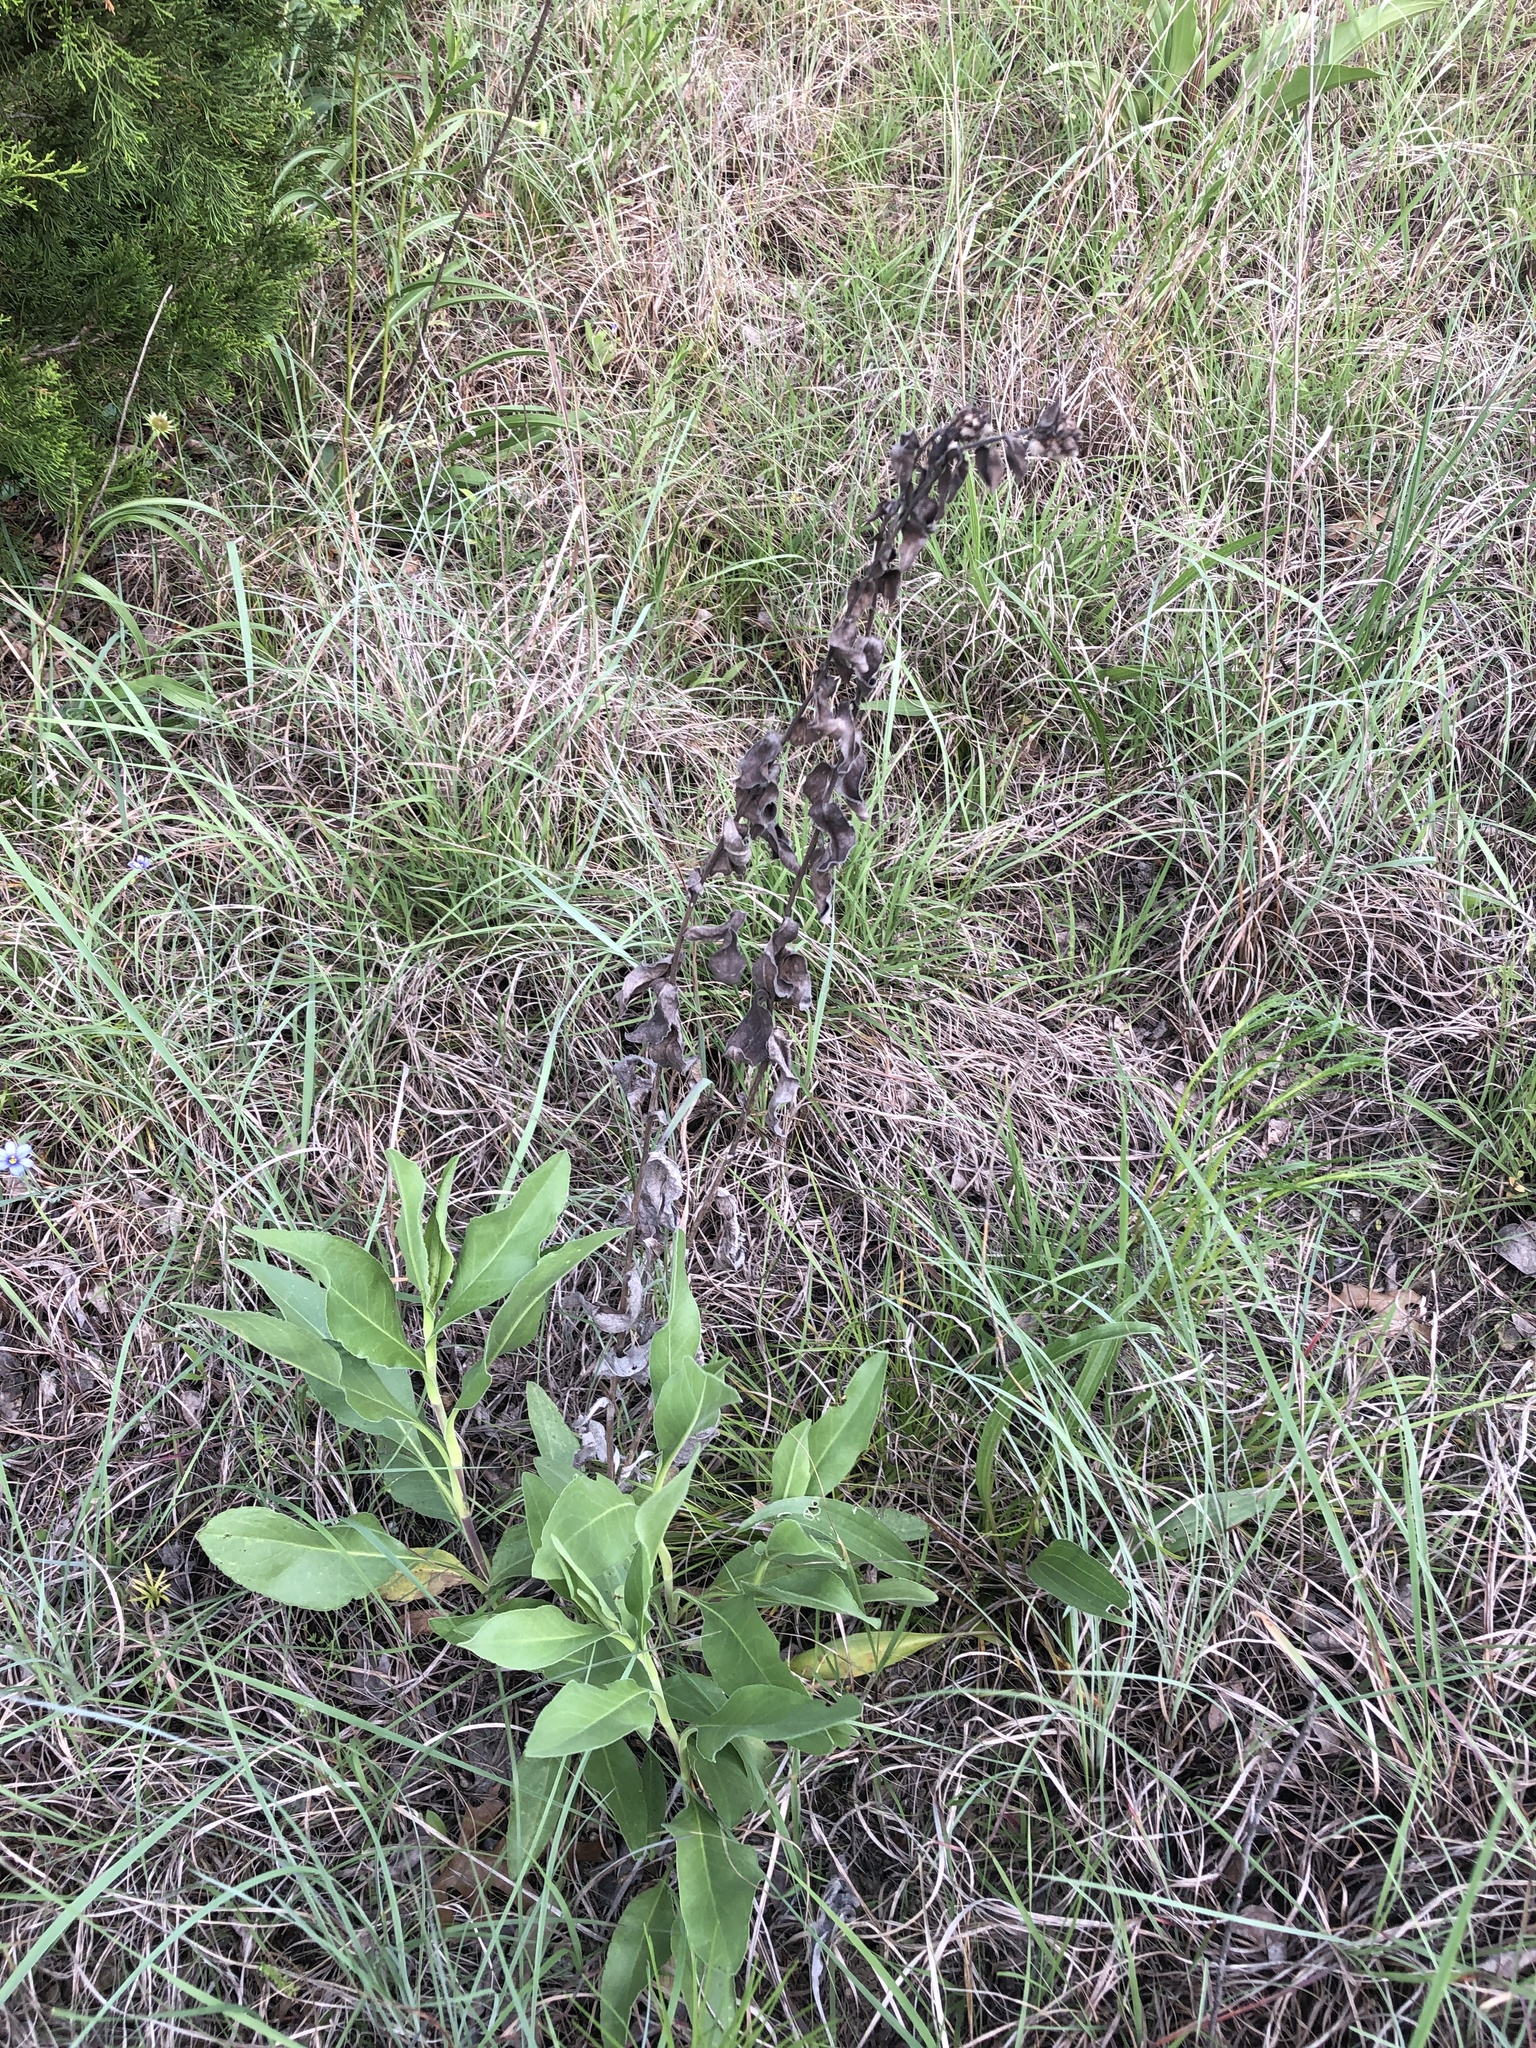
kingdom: Plantae
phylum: Tracheophyta
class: Magnoliopsida
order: Asterales
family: Asteraceae
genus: Solidago
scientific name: Solidago rigida
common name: Rigid goldenrod
